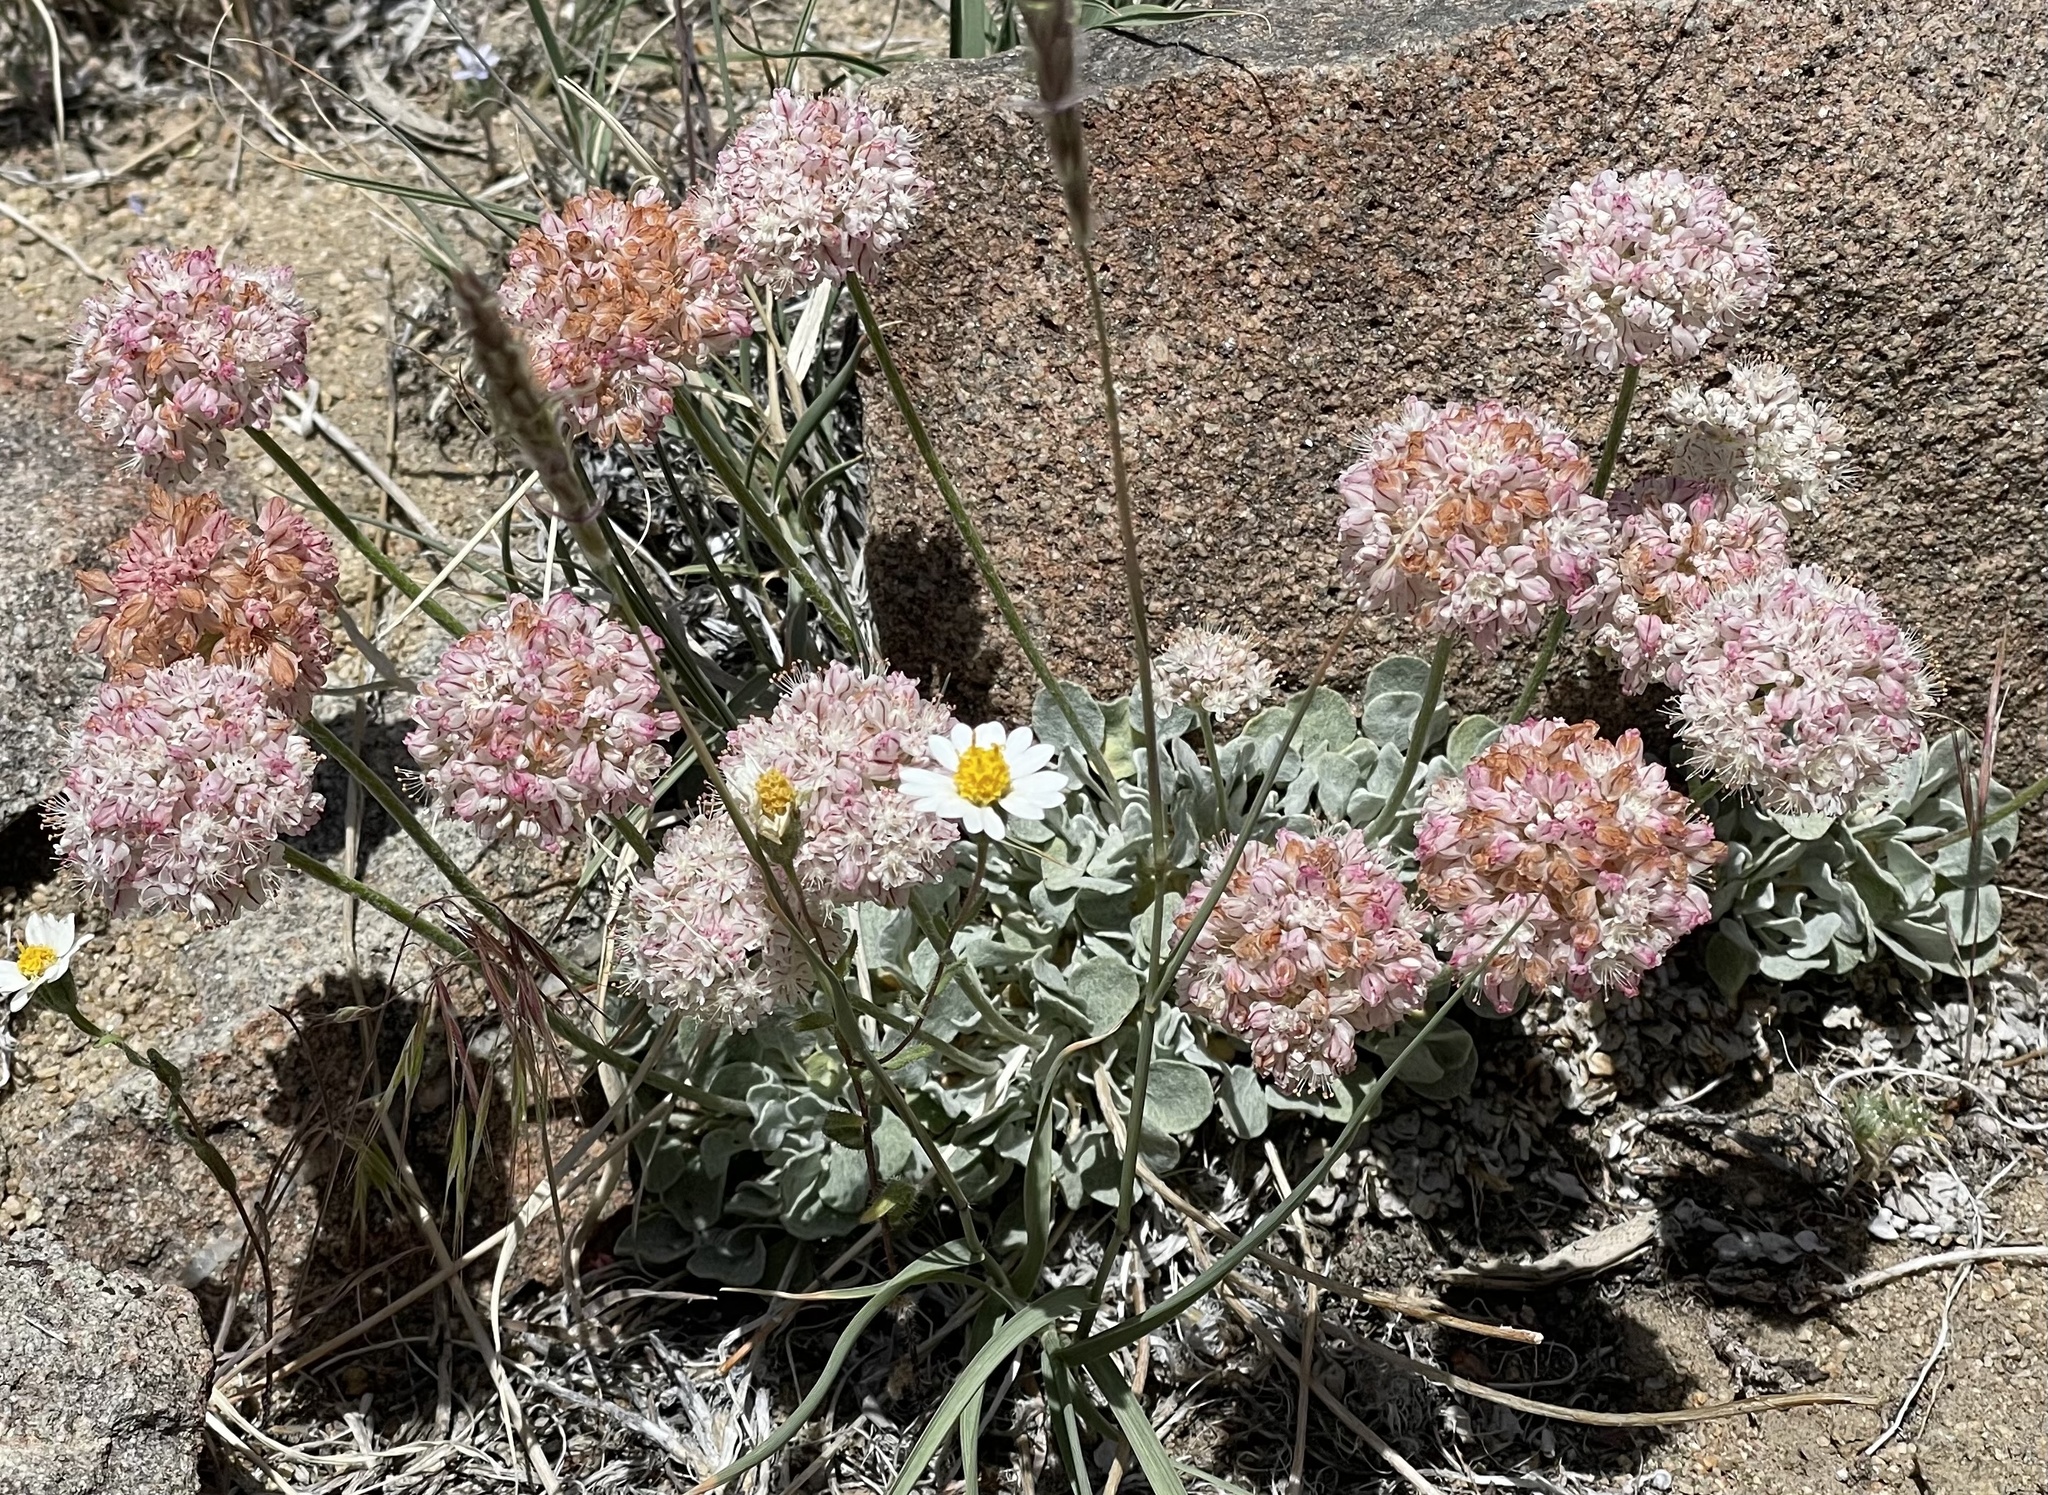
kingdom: Plantae
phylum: Tracheophyta
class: Magnoliopsida
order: Caryophyllales
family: Polygonaceae
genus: Eriogonum
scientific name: Eriogonum ovalifolium
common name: Cushion buckwheat
